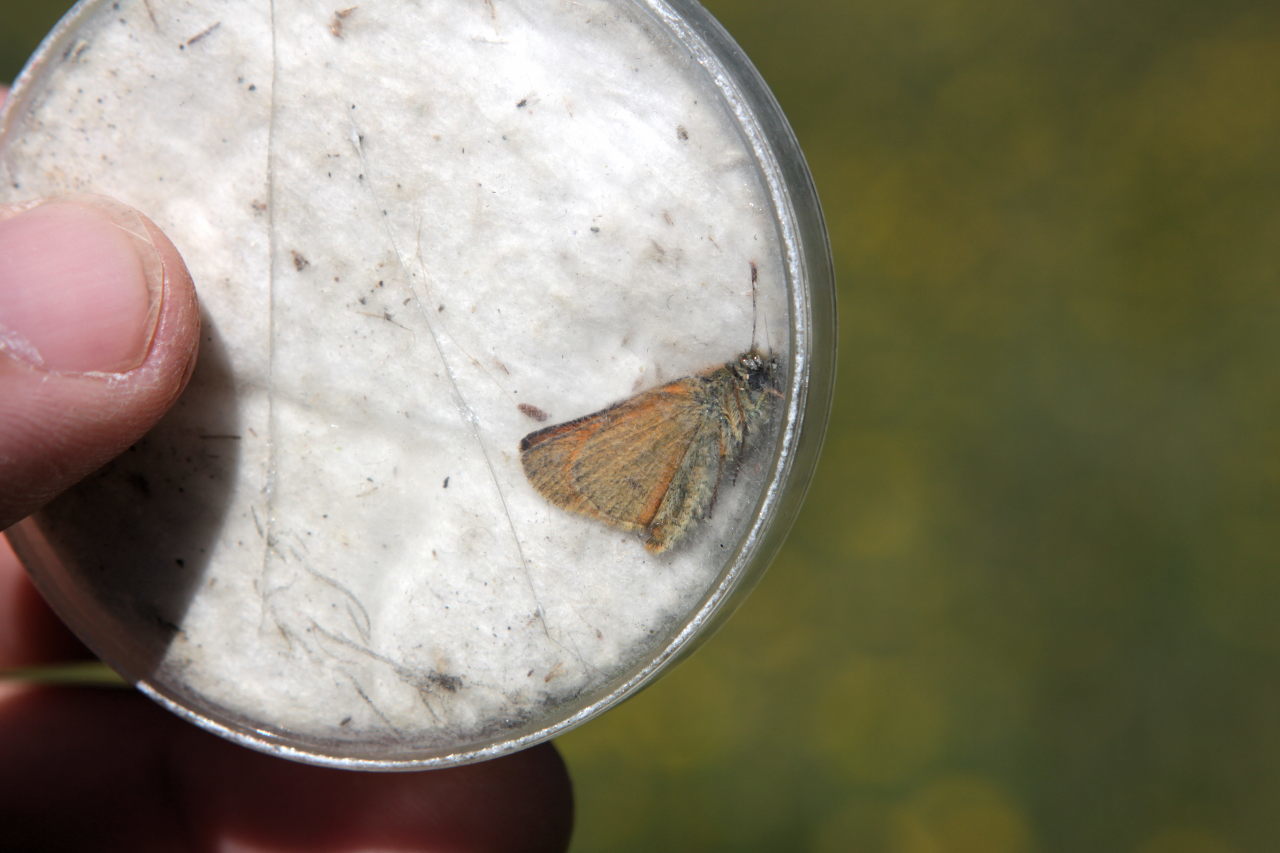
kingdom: Animalia
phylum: Arthropoda
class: Insecta
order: Lepidoptera
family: Hesperiidae
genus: Thymelicus
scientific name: Thymelicus sylvestris
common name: Small skipper
